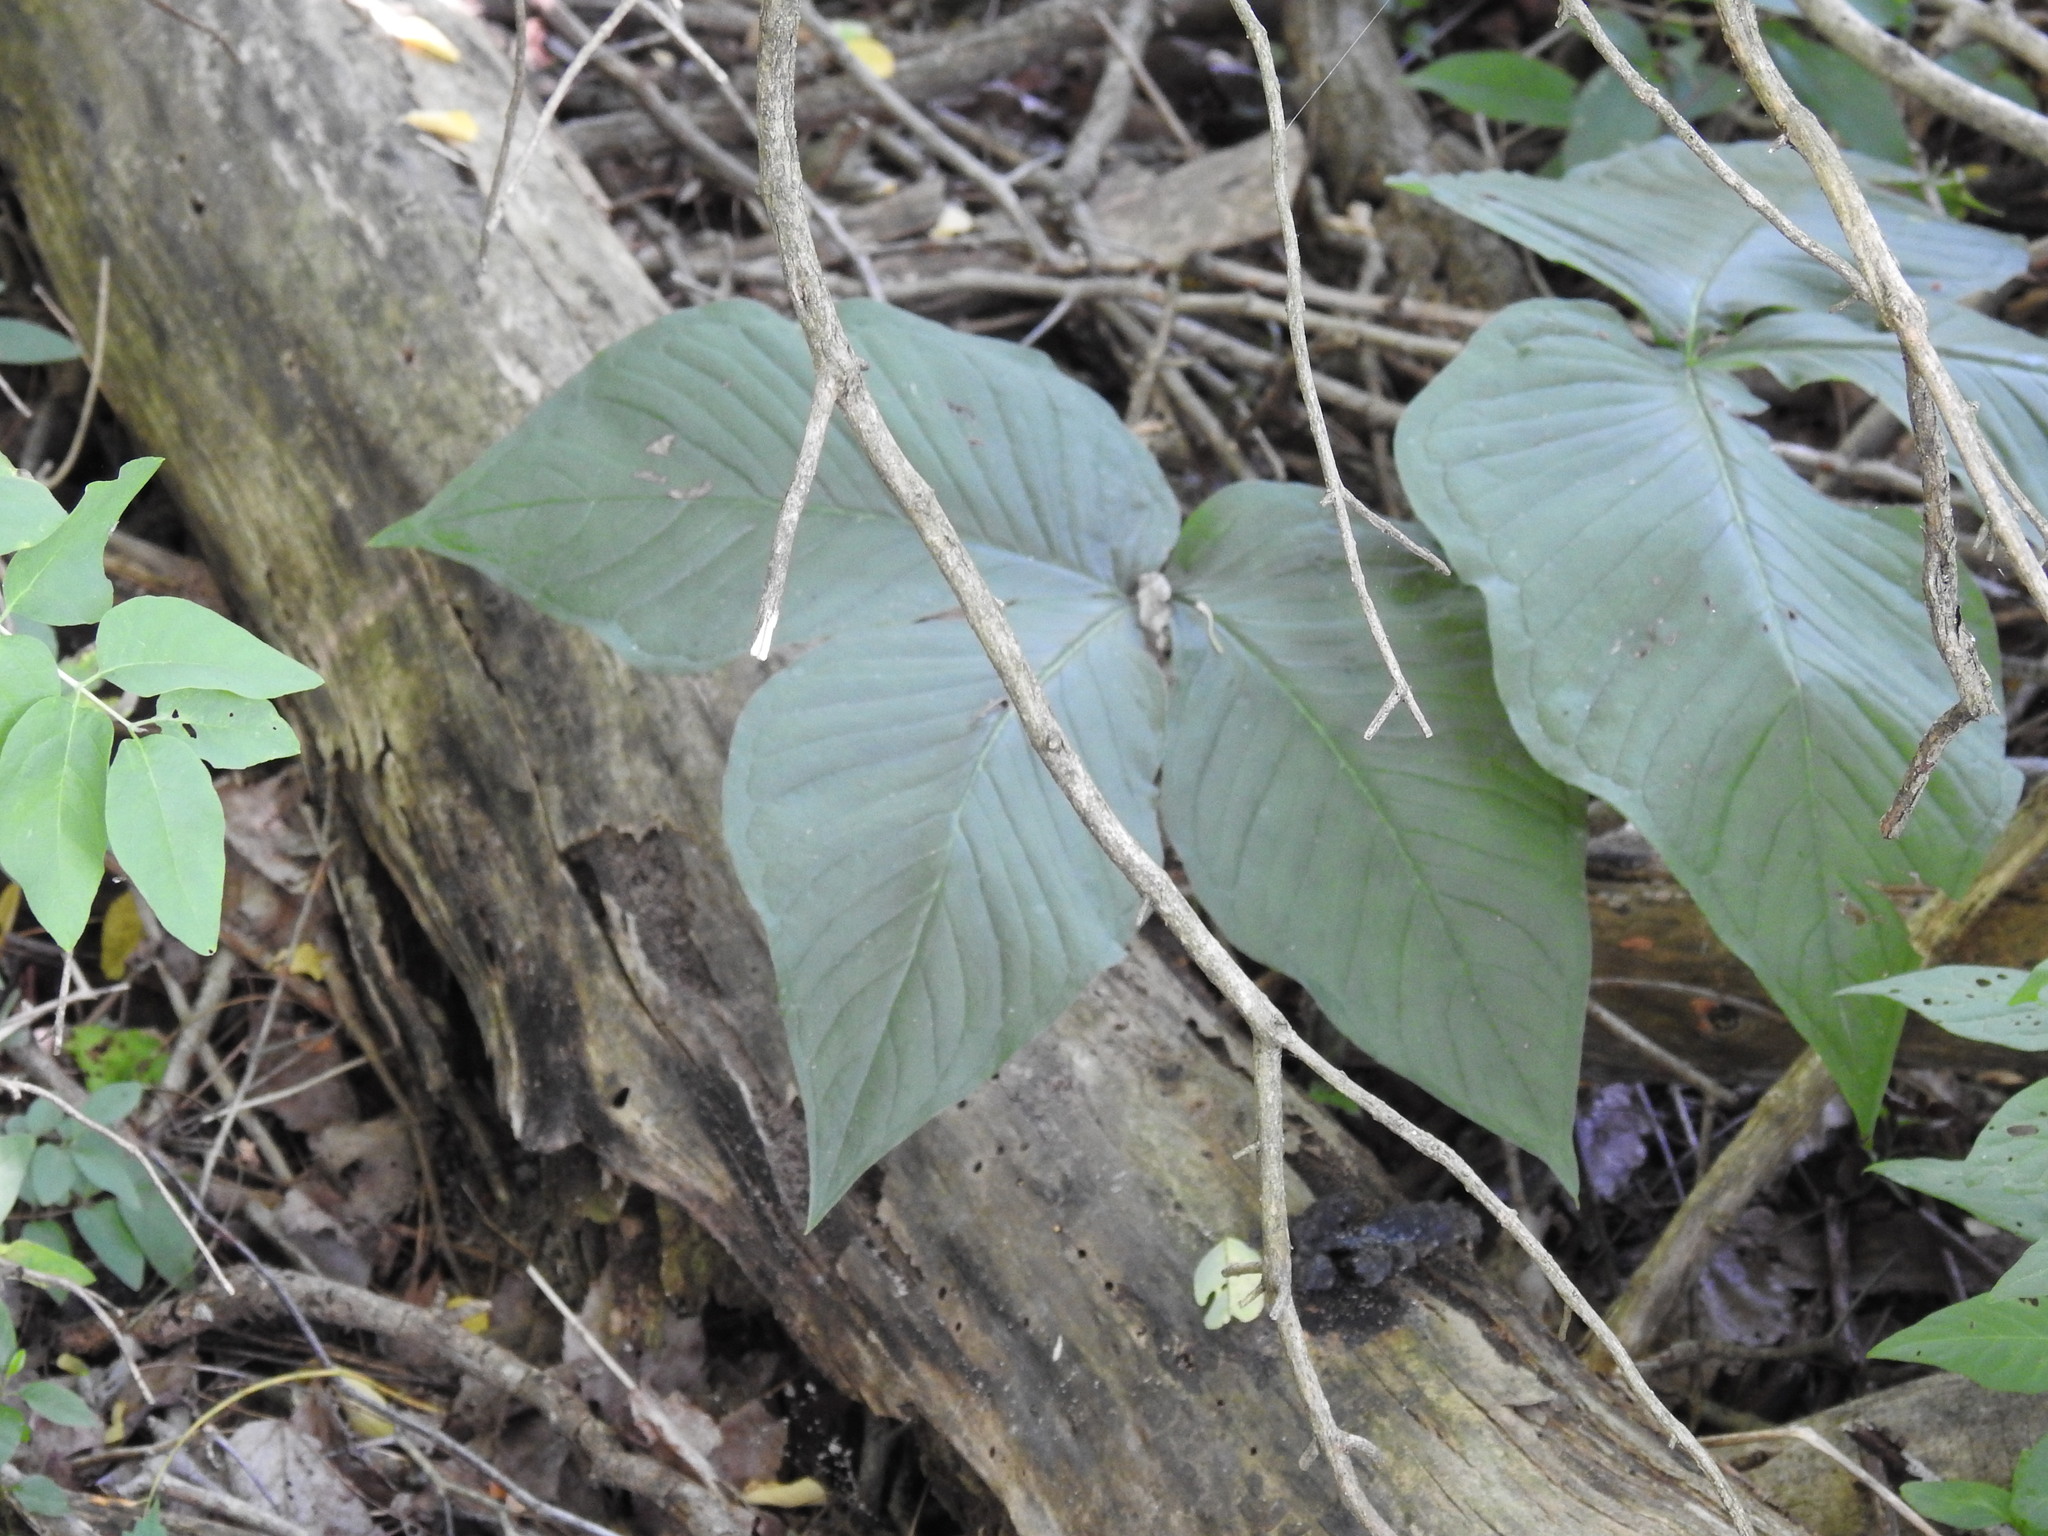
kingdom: Plantae
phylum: Tracheophyta
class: Liliopsida
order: Alismatales
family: Araceae
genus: Arisaema
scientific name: Arisaema triphyllum
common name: Jack-in-the-pulpit
